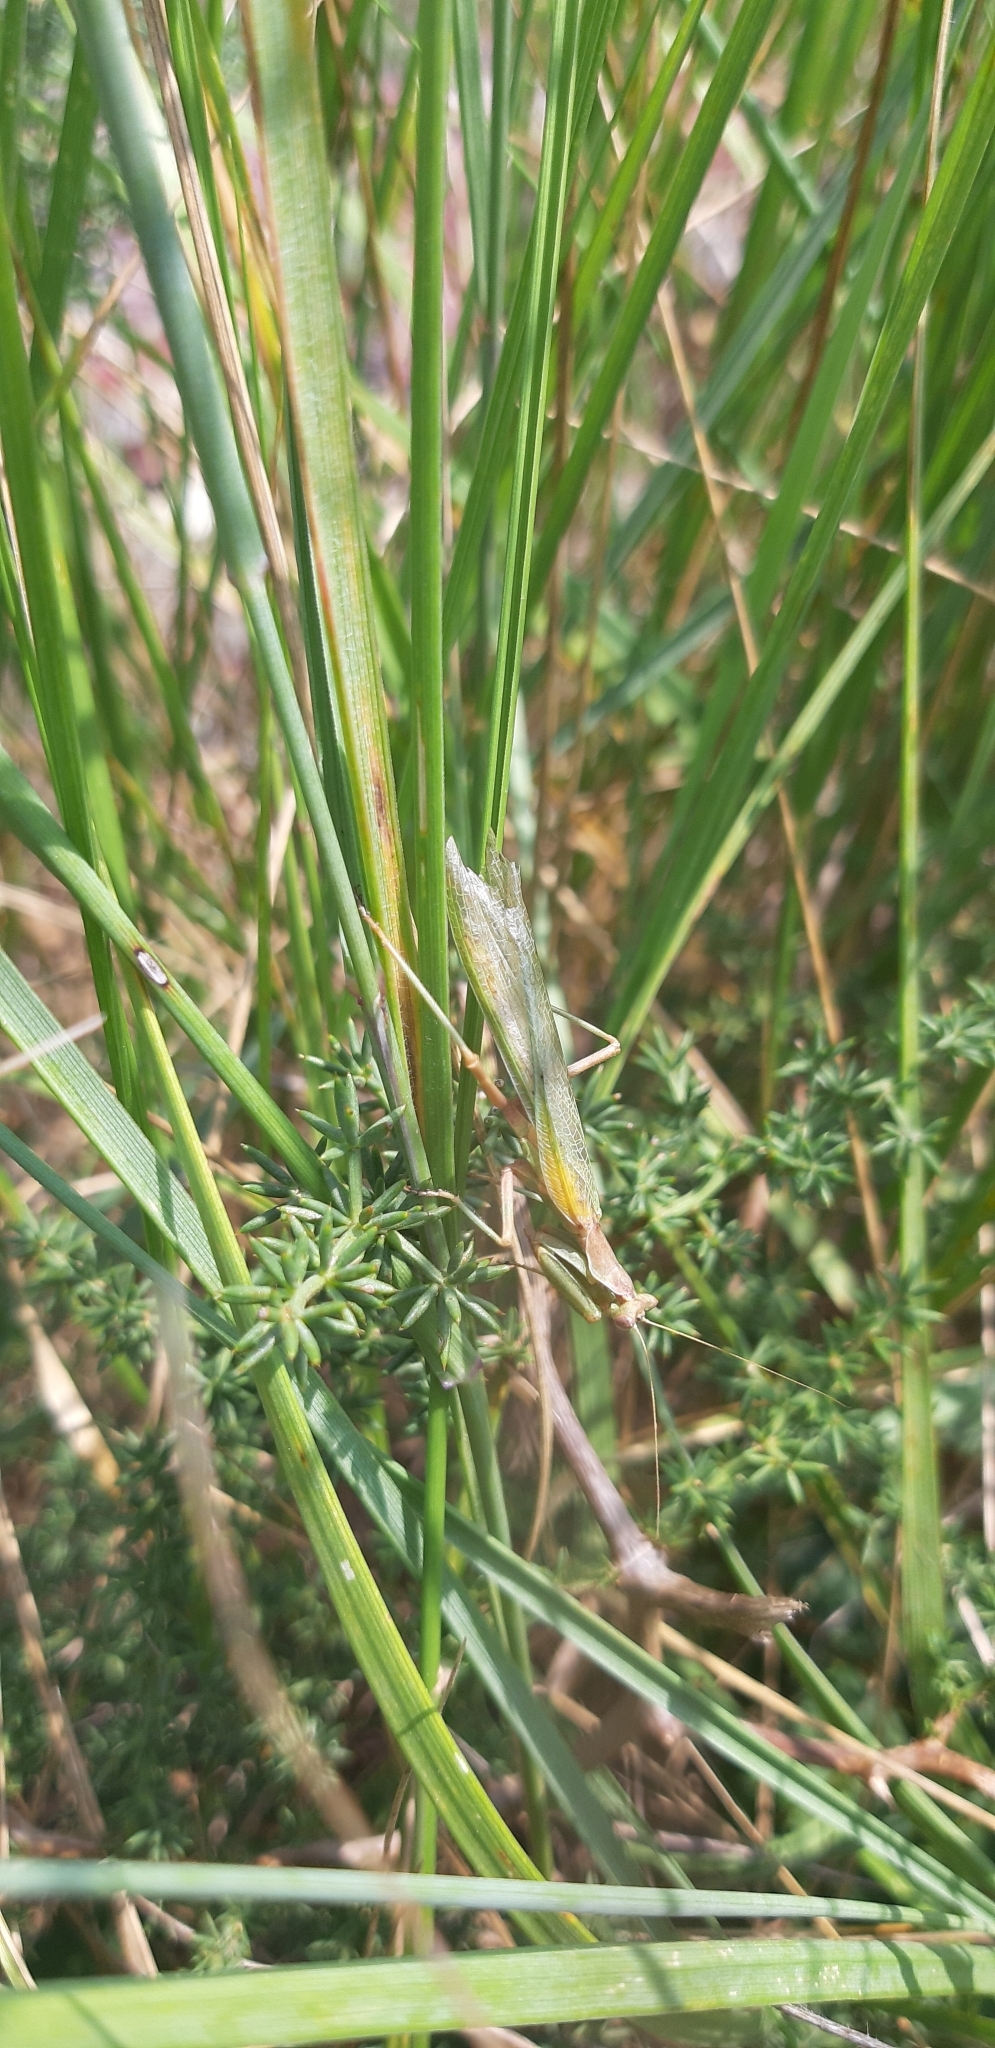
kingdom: Animalia
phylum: Arthropoda
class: Insecta
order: Mantodea
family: Amelidae
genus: Ameles
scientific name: Ameles spallanzania
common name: European dwarf mantis
